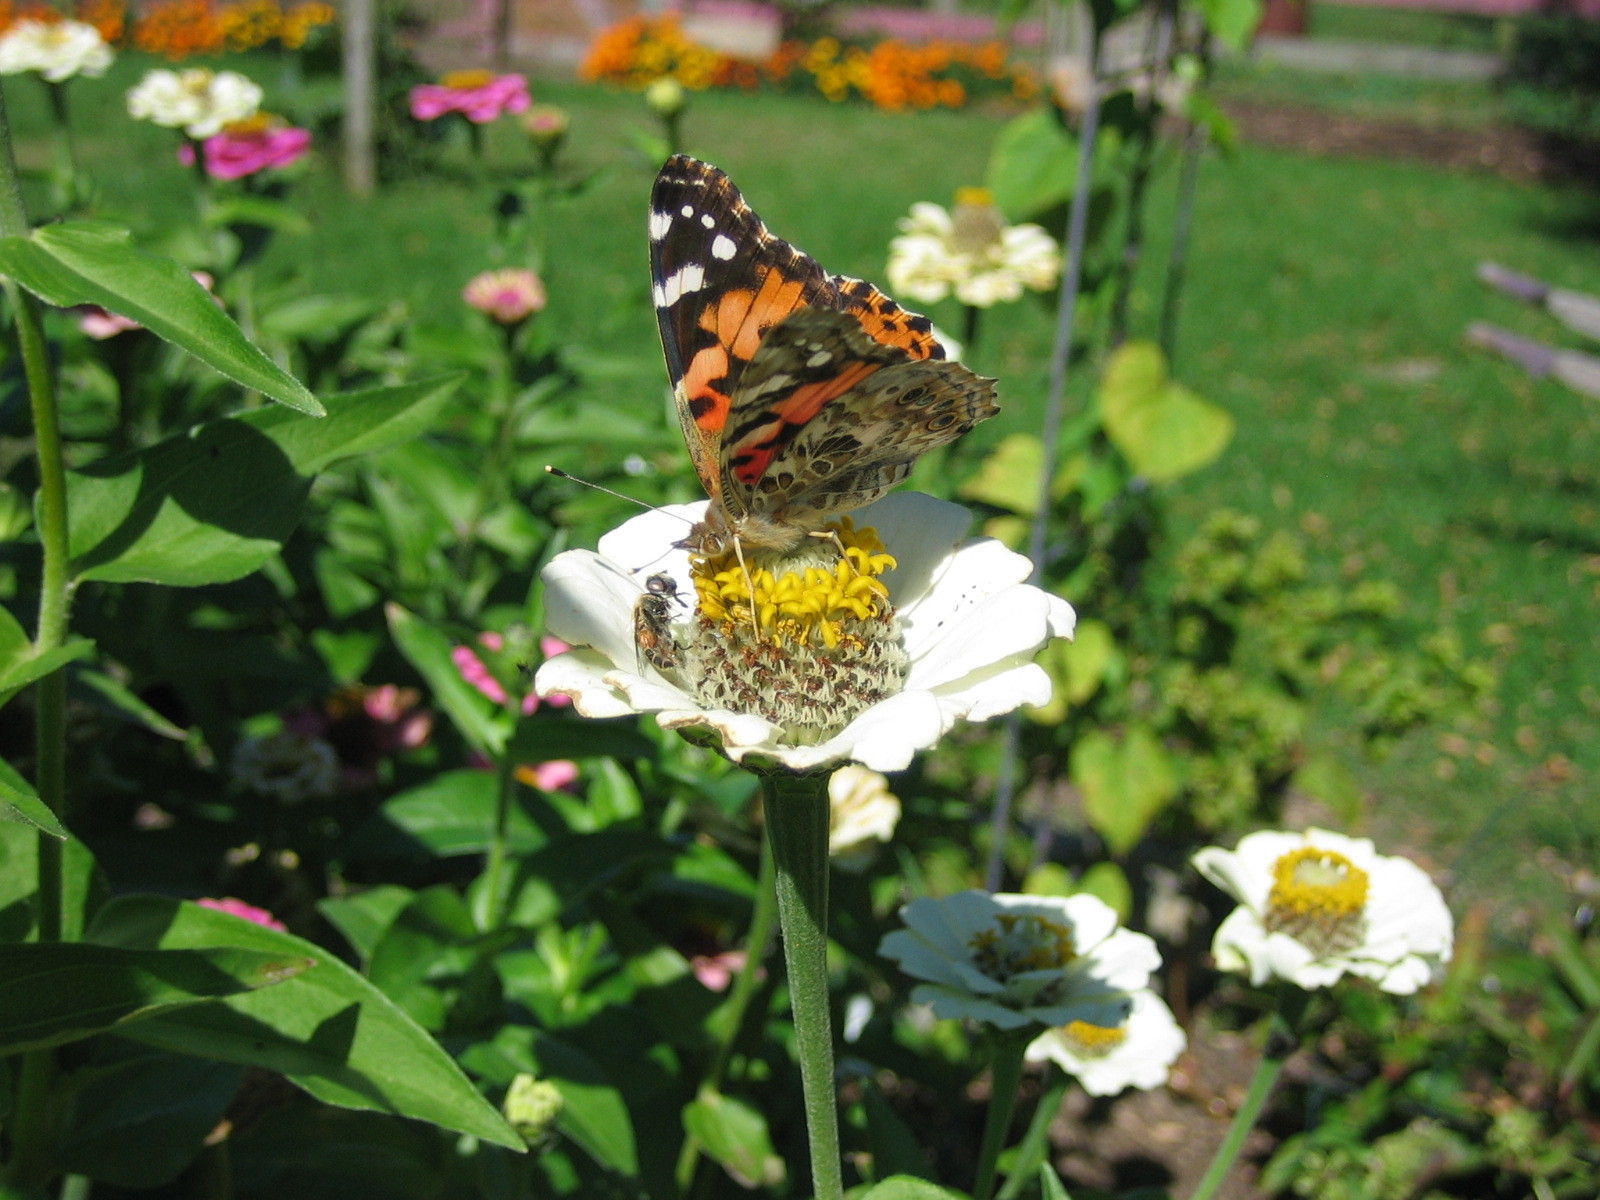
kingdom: Animalia
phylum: Arthropoda
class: Insecta
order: Lepidoptera
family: Nymphalidae
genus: Vanessa
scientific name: Vanessa cardui
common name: Painted lady
